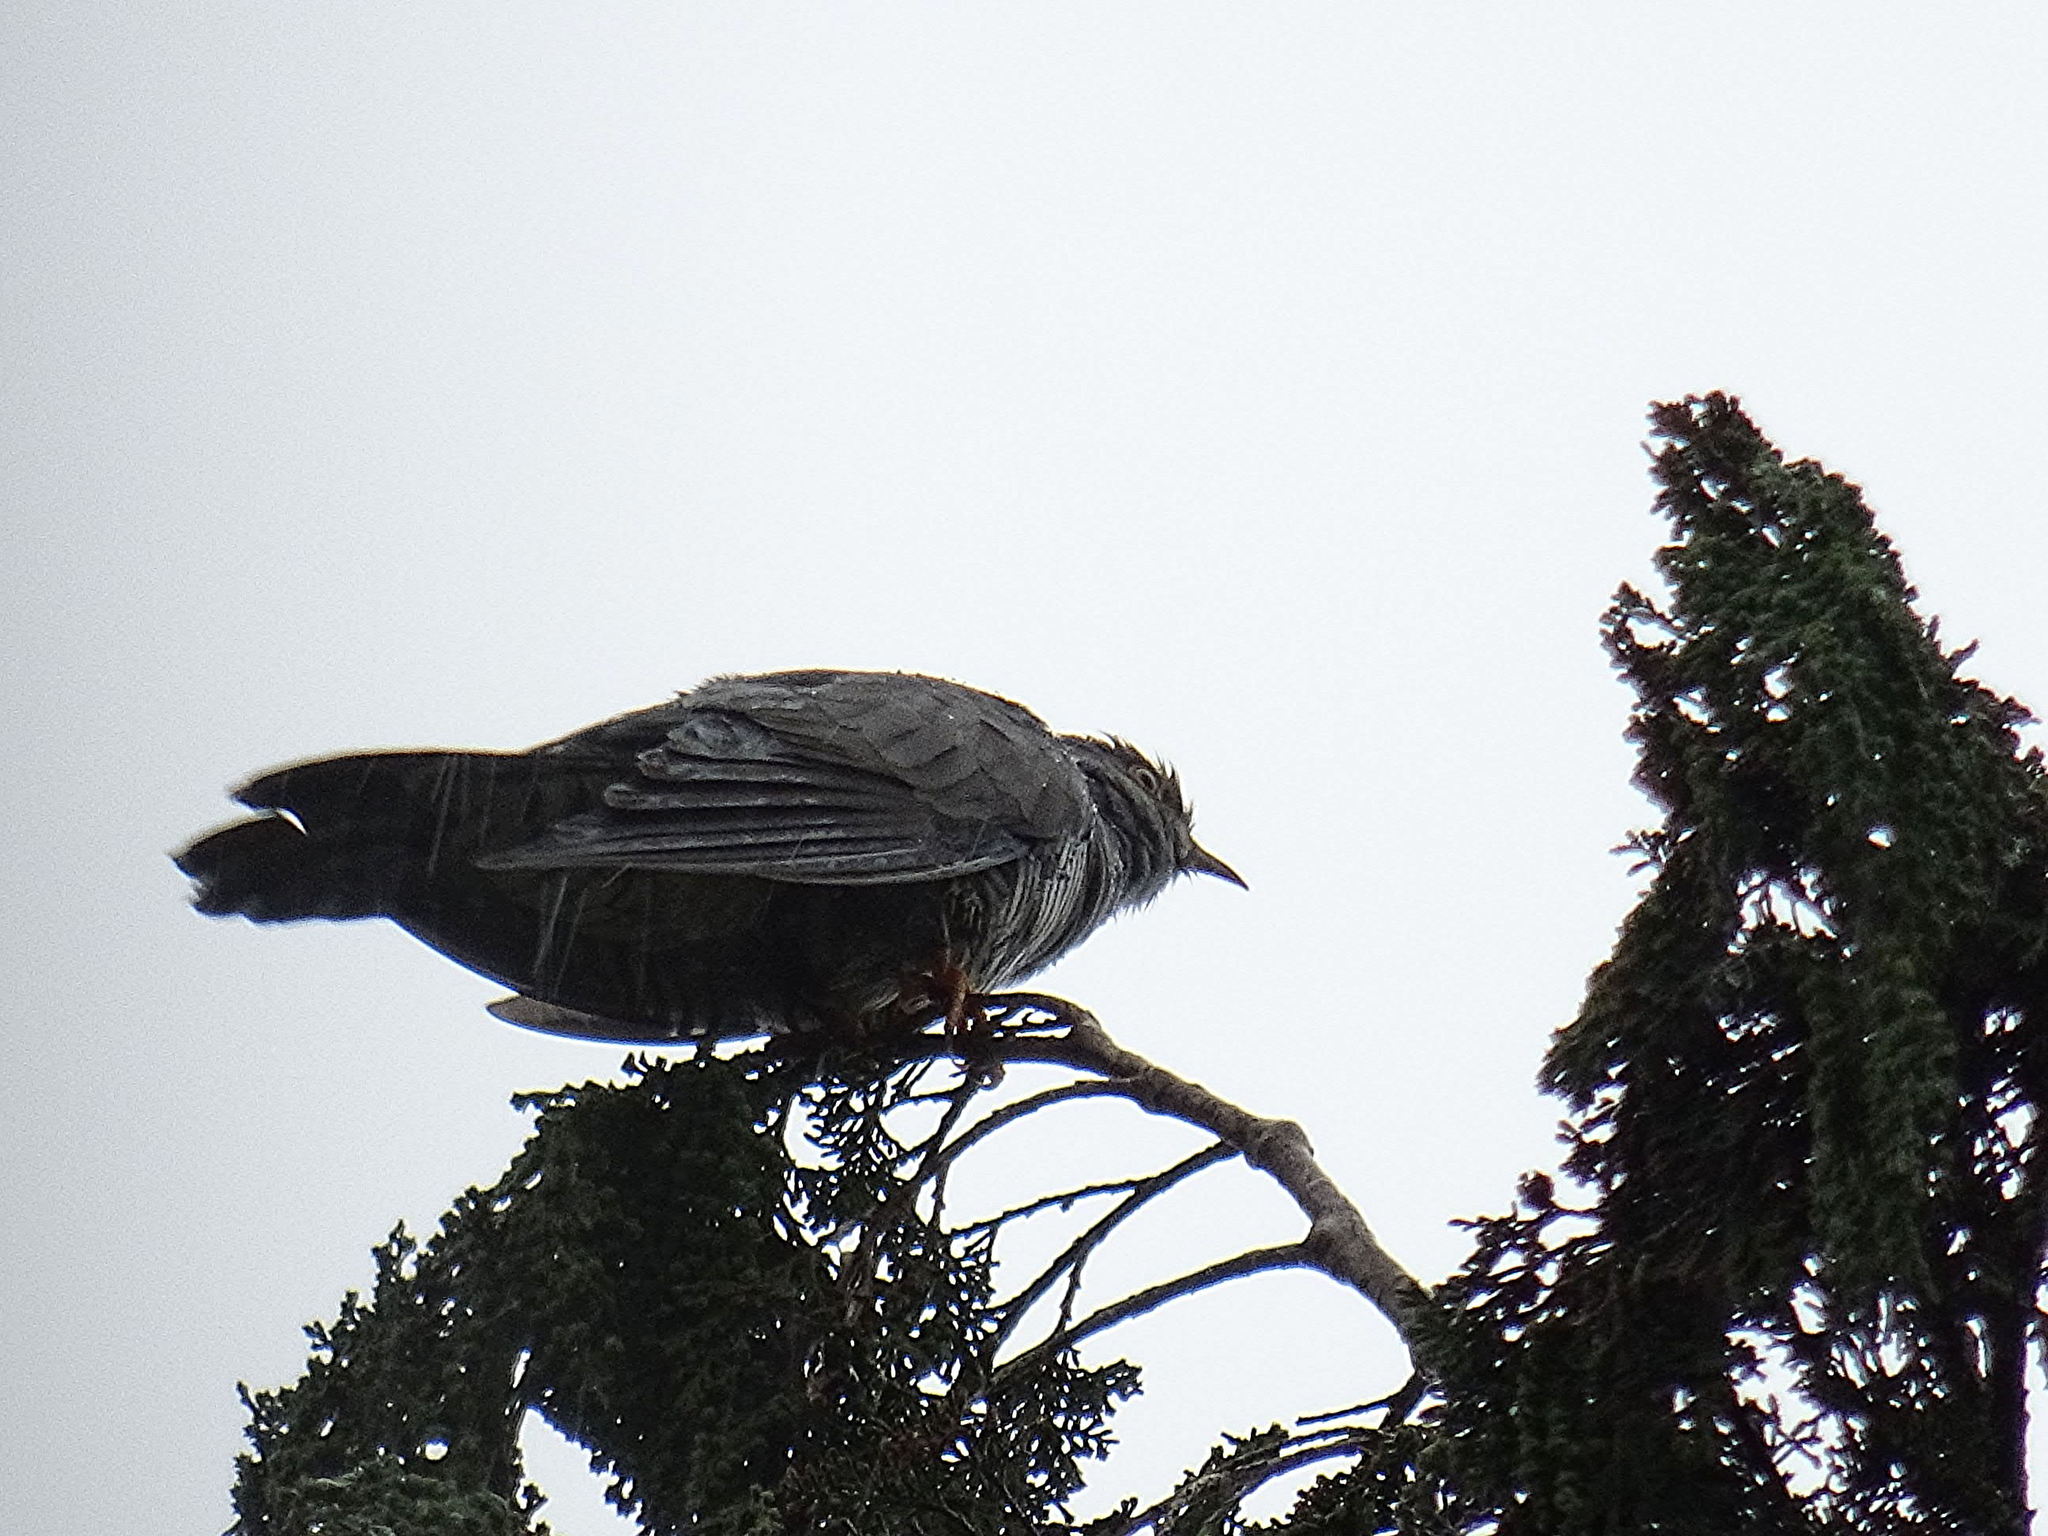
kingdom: Animalia
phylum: Chordata
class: Aves
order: Cuculiformes
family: Cuculidae
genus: Cuculus
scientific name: Cuculus canorus
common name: Common cuckoo
